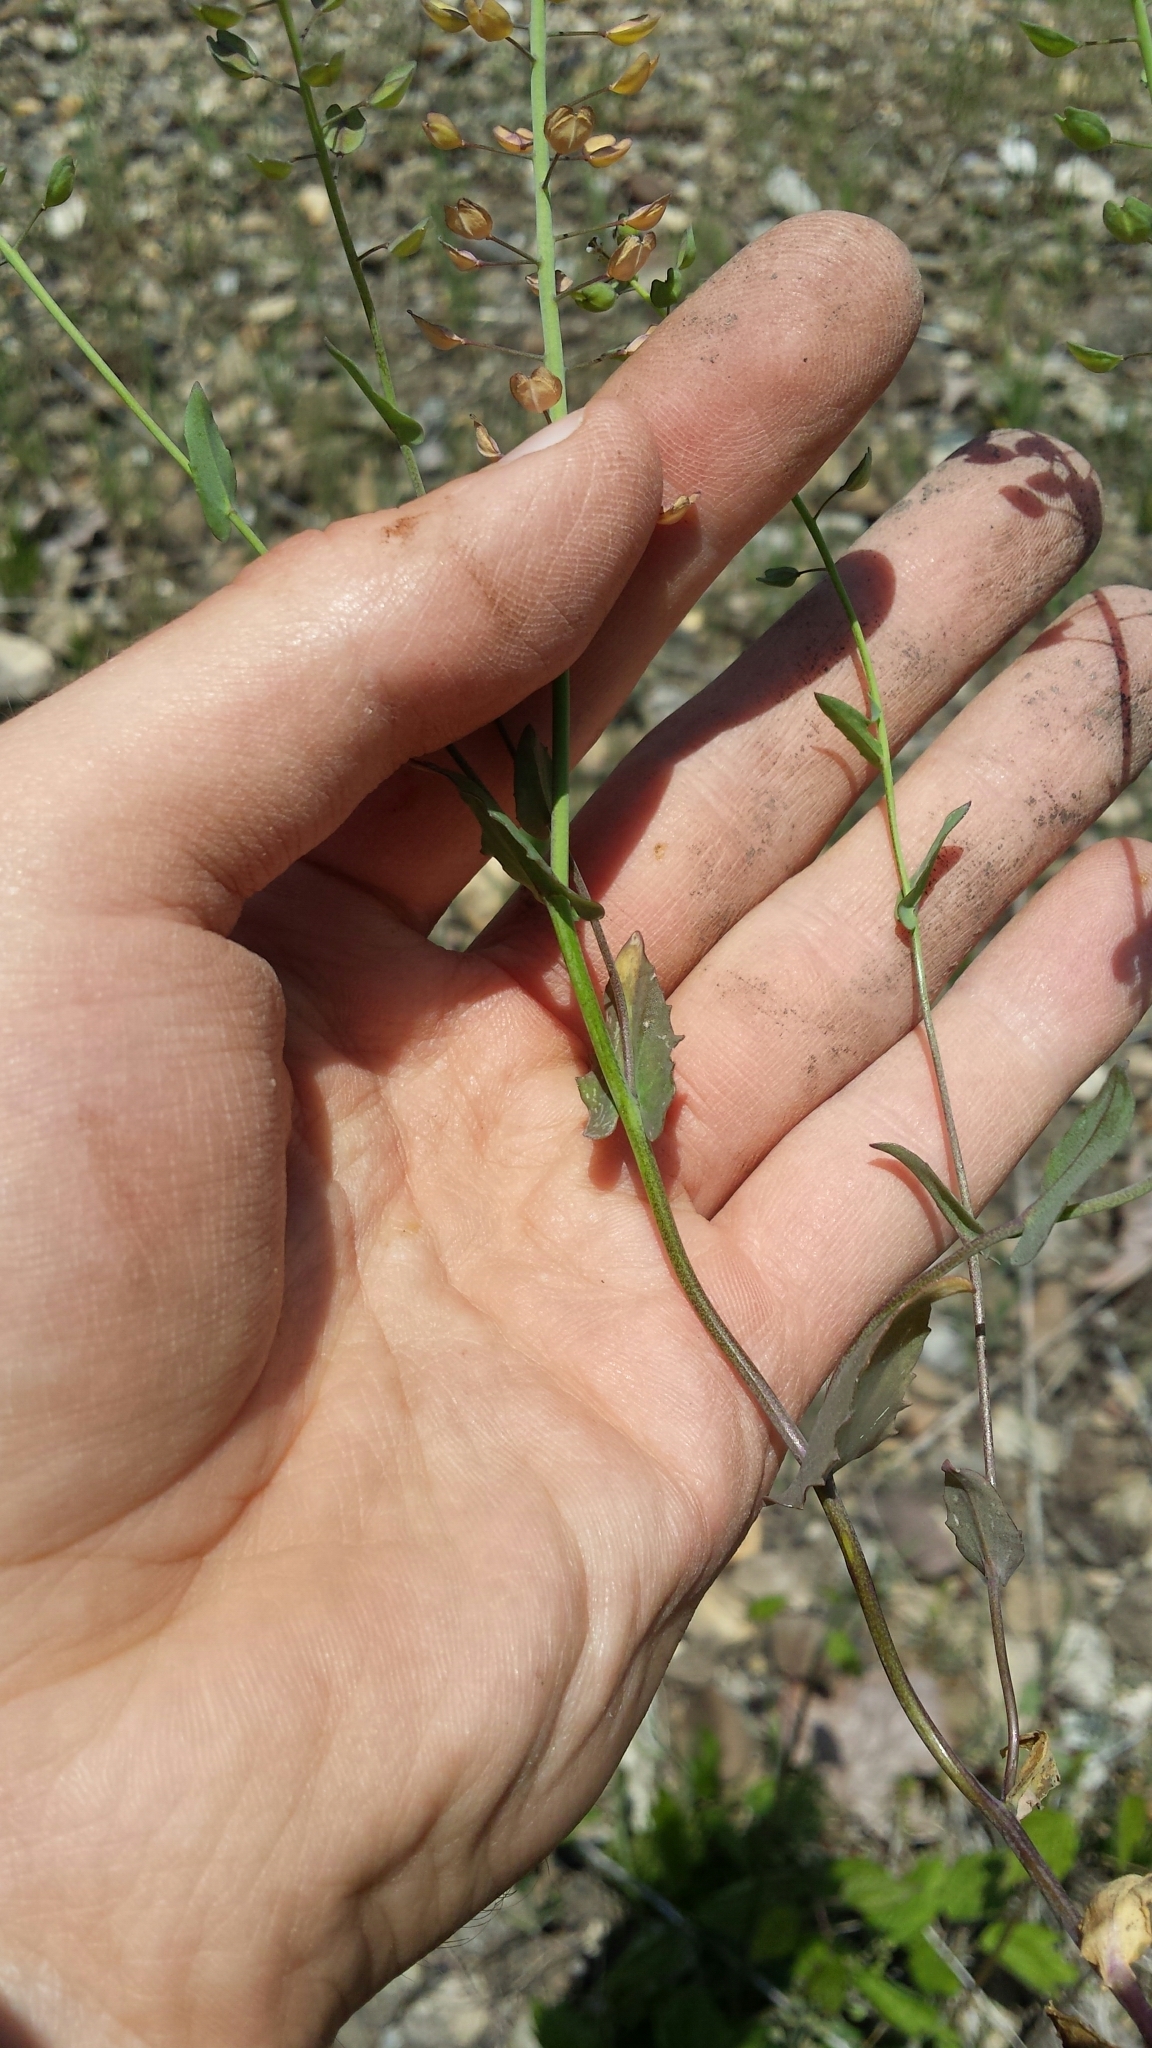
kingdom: Plantae
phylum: Tracheophyta
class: Magnoliopsida
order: Brassicales
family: Brassicaceae
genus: Noccaea
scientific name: Noccaea perfoliata
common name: Perfoliate pennycress
